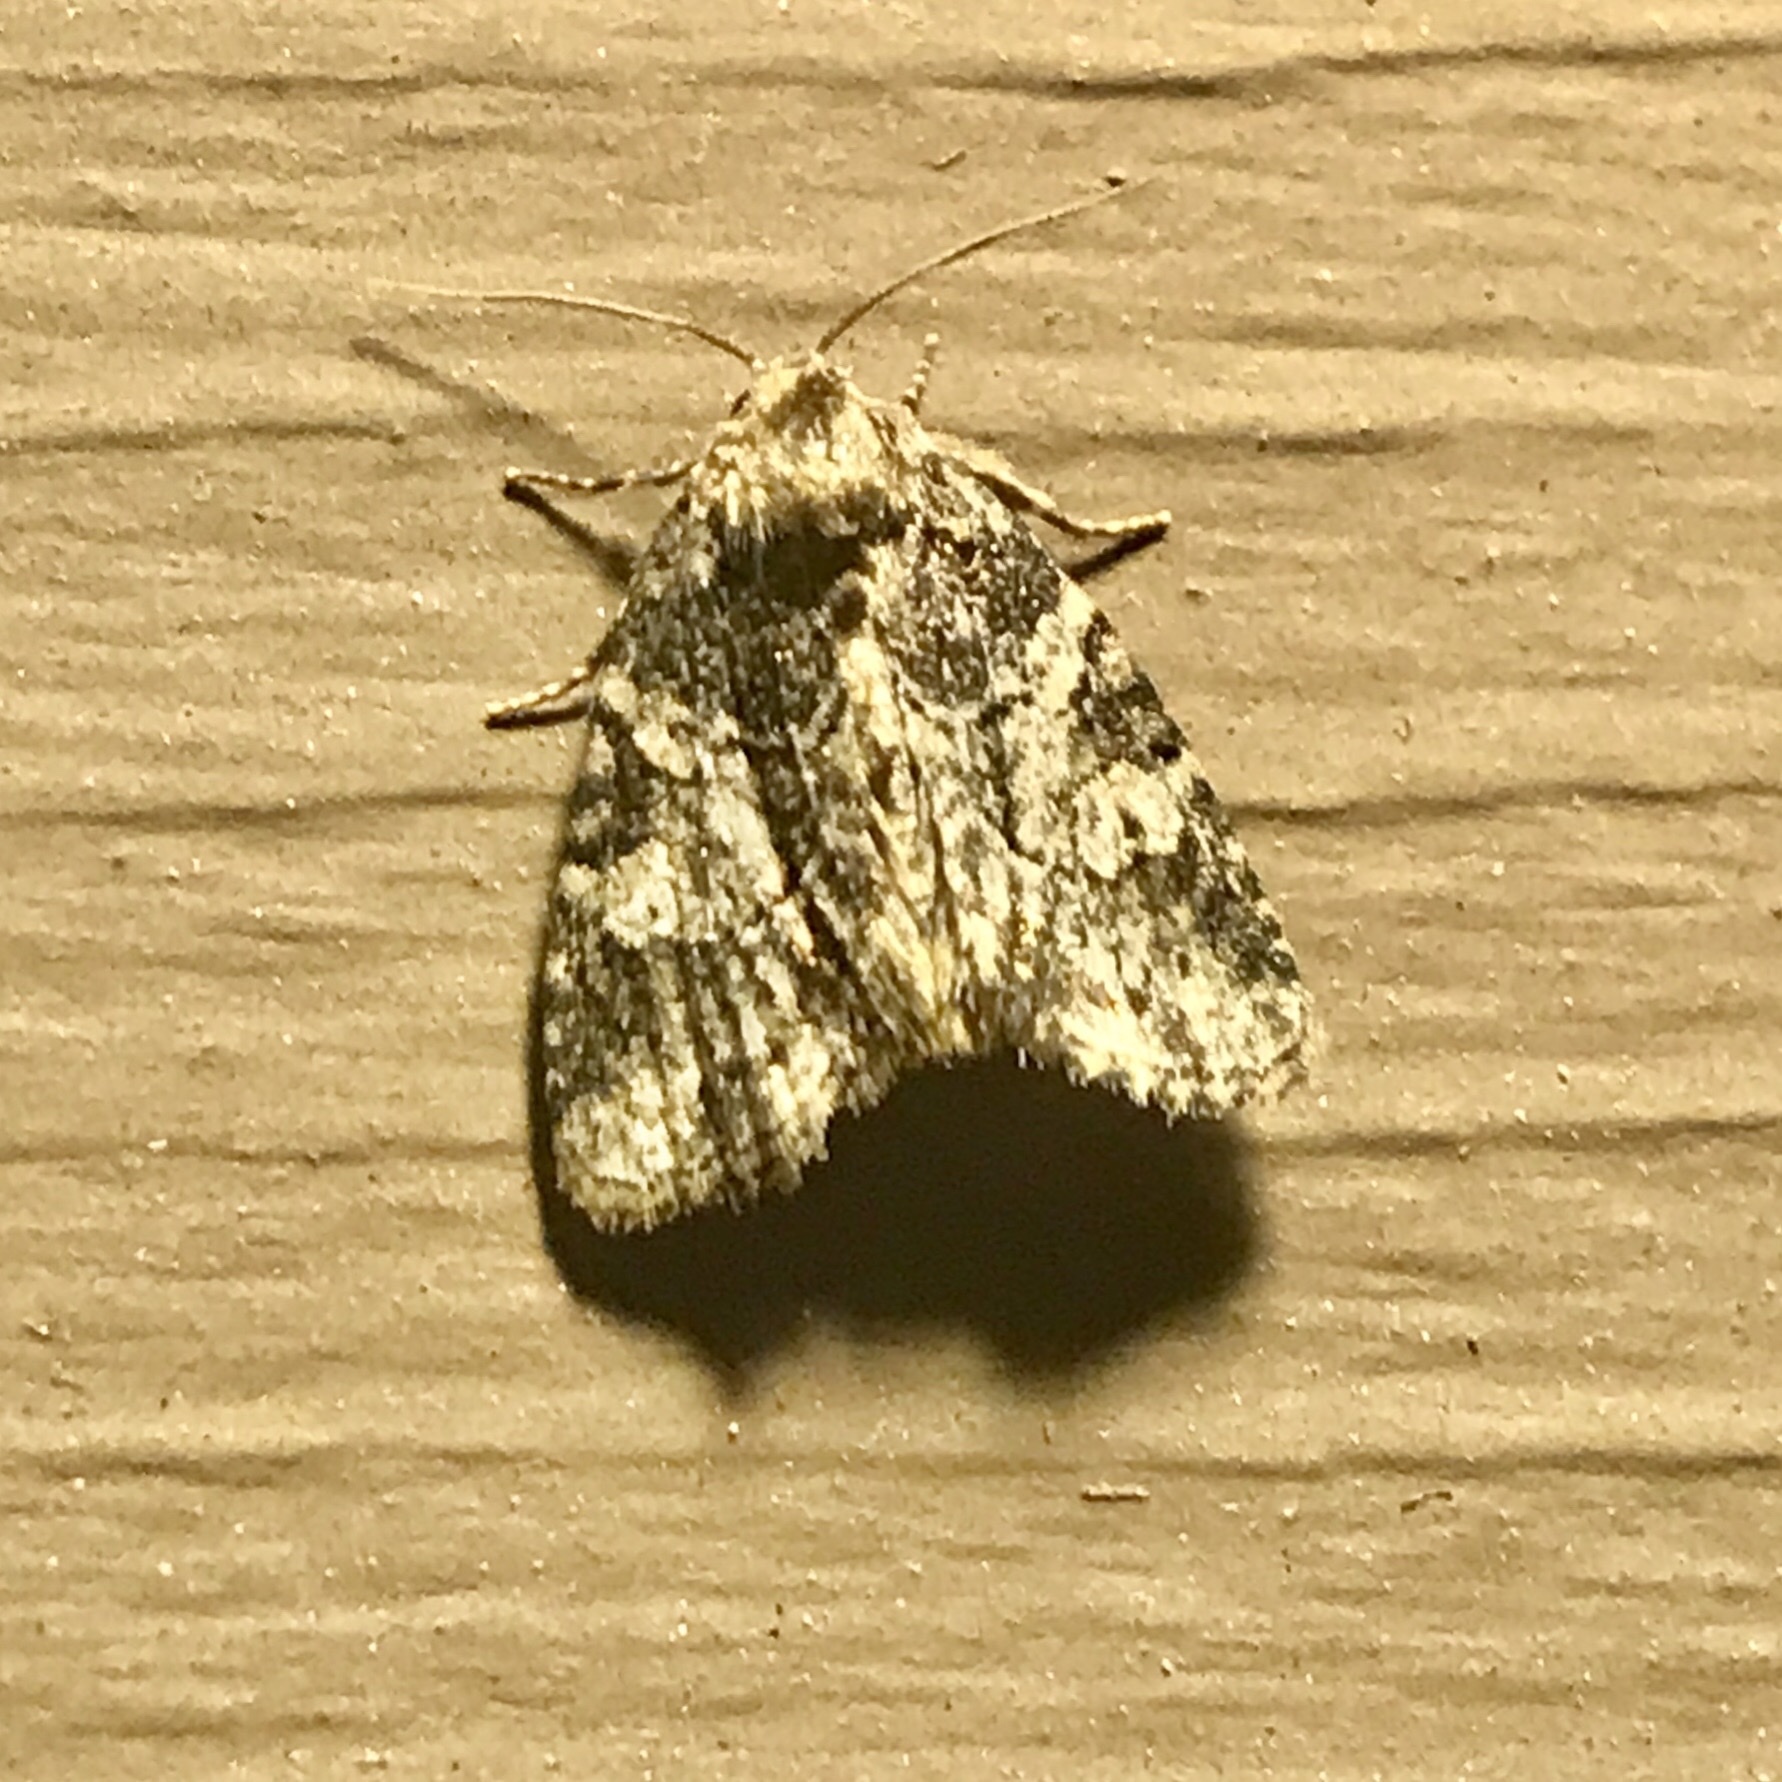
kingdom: Animalia
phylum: Arthropoda
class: Insecta
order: Lepidoptera
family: Noctuidae
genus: Neoligia
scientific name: Neoligia exhausta
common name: Exhausted brocade
